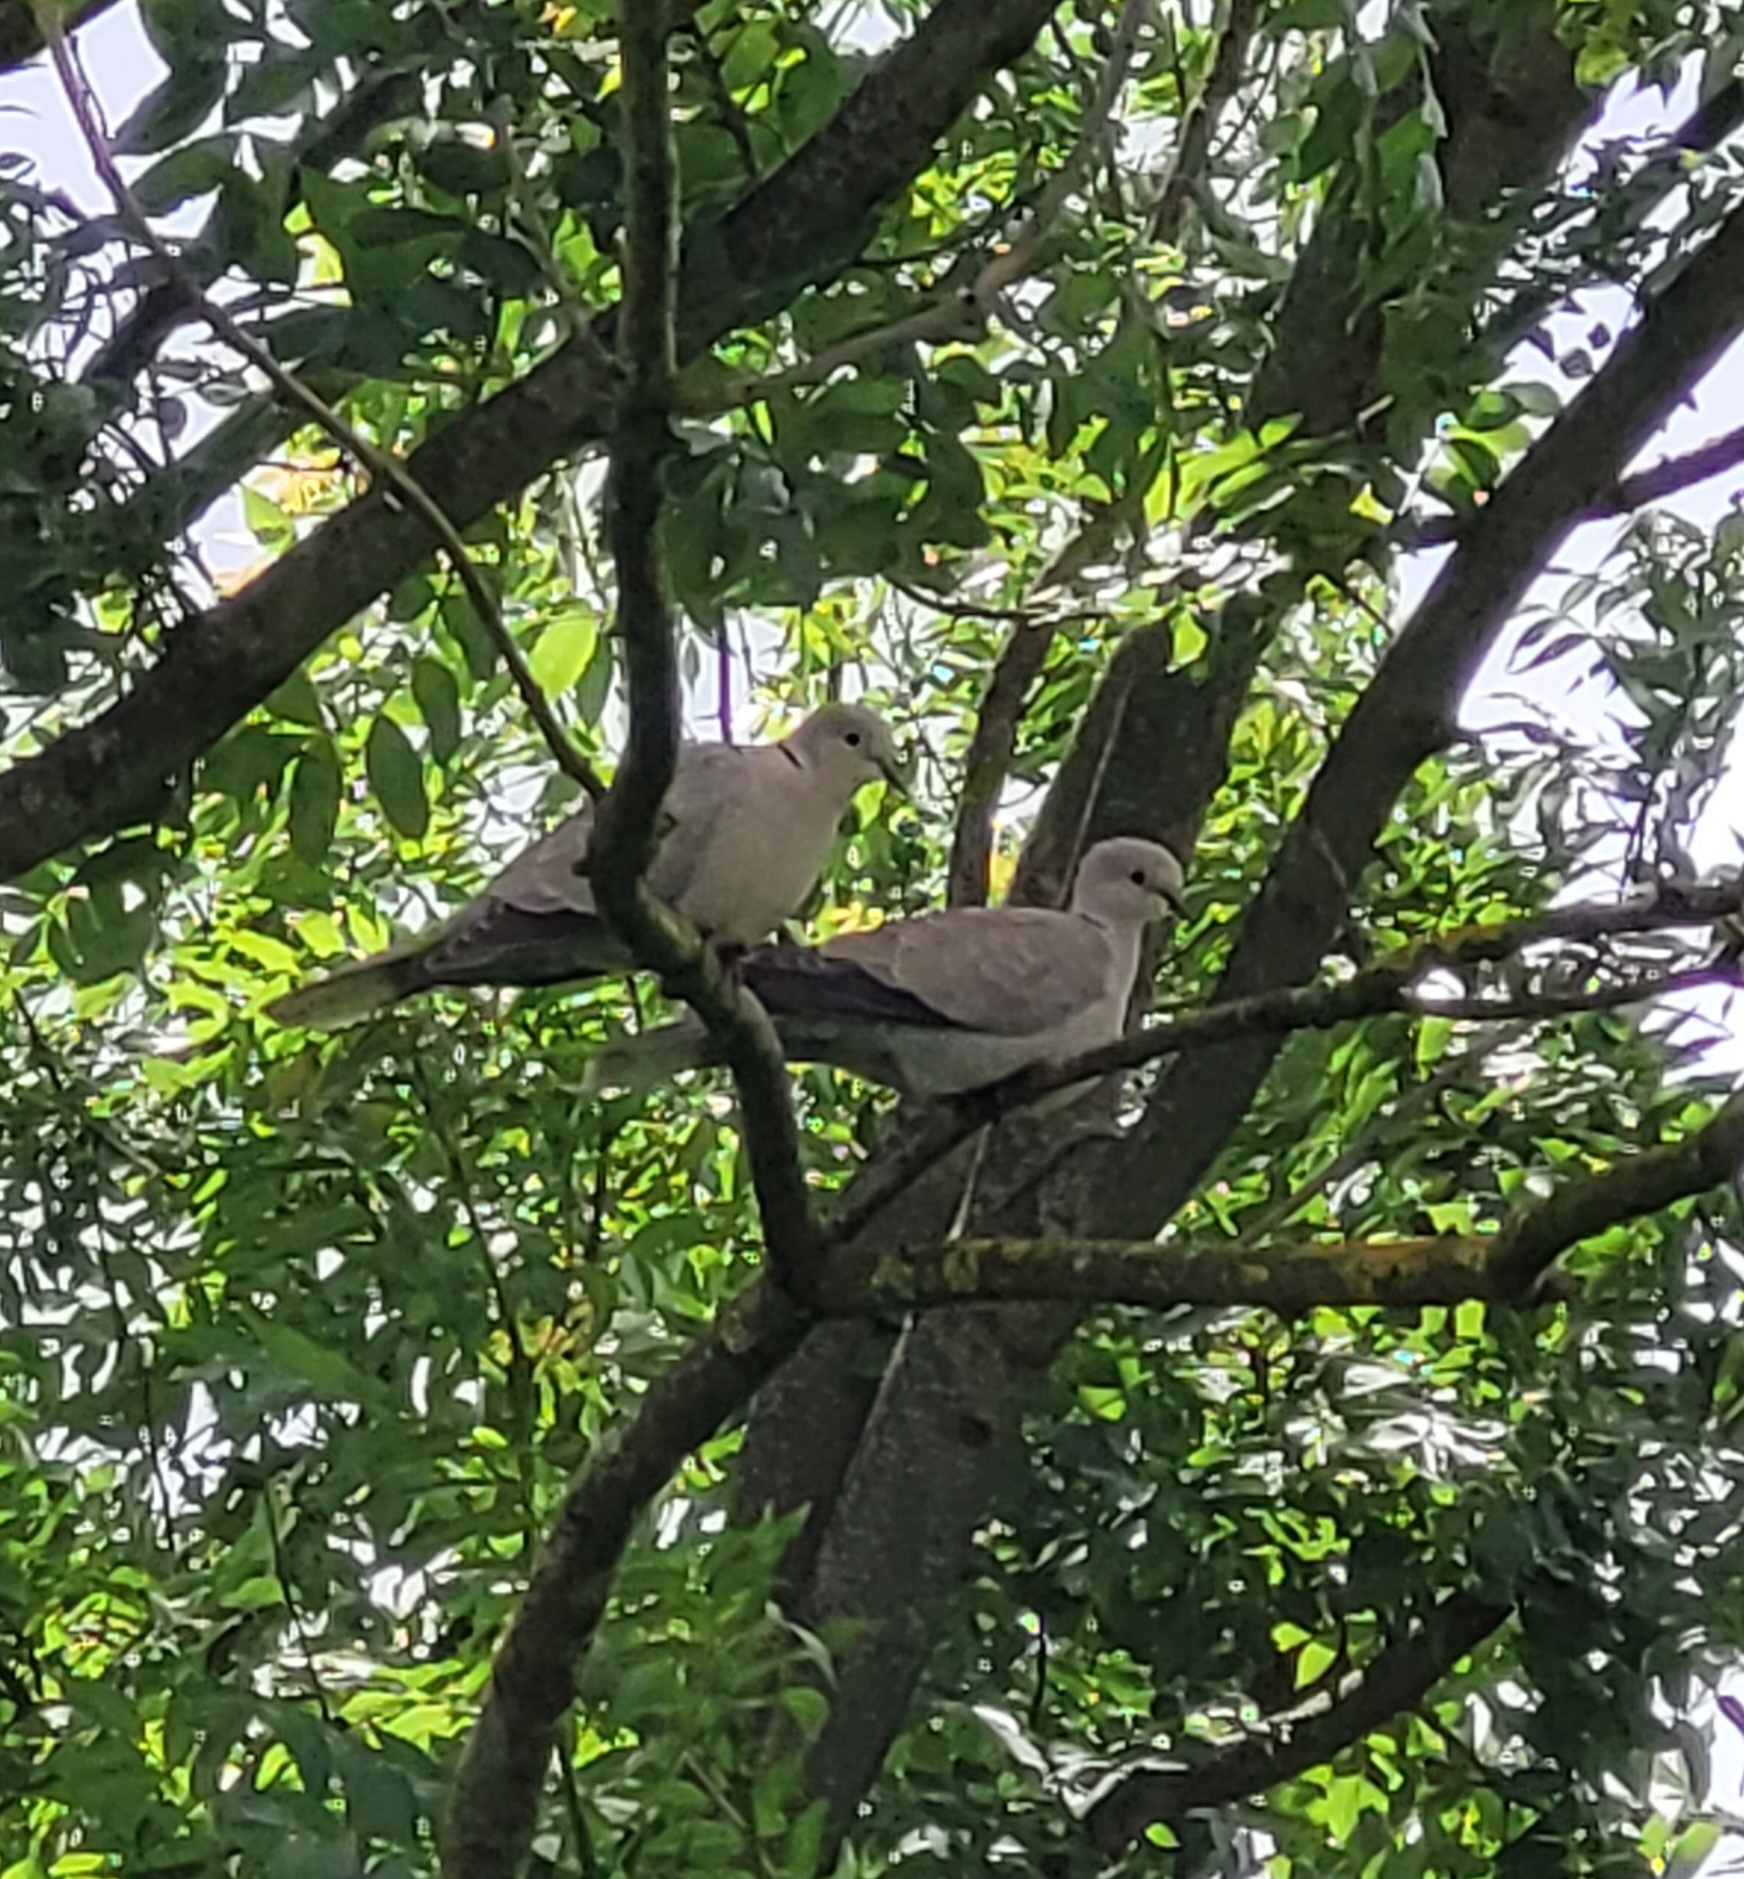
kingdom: Animalia
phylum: Chordata
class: Aves
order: Columbiformes
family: Columbidae
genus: Streptopelia
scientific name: Streptopelia decaocto
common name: Eurasian collared dove
